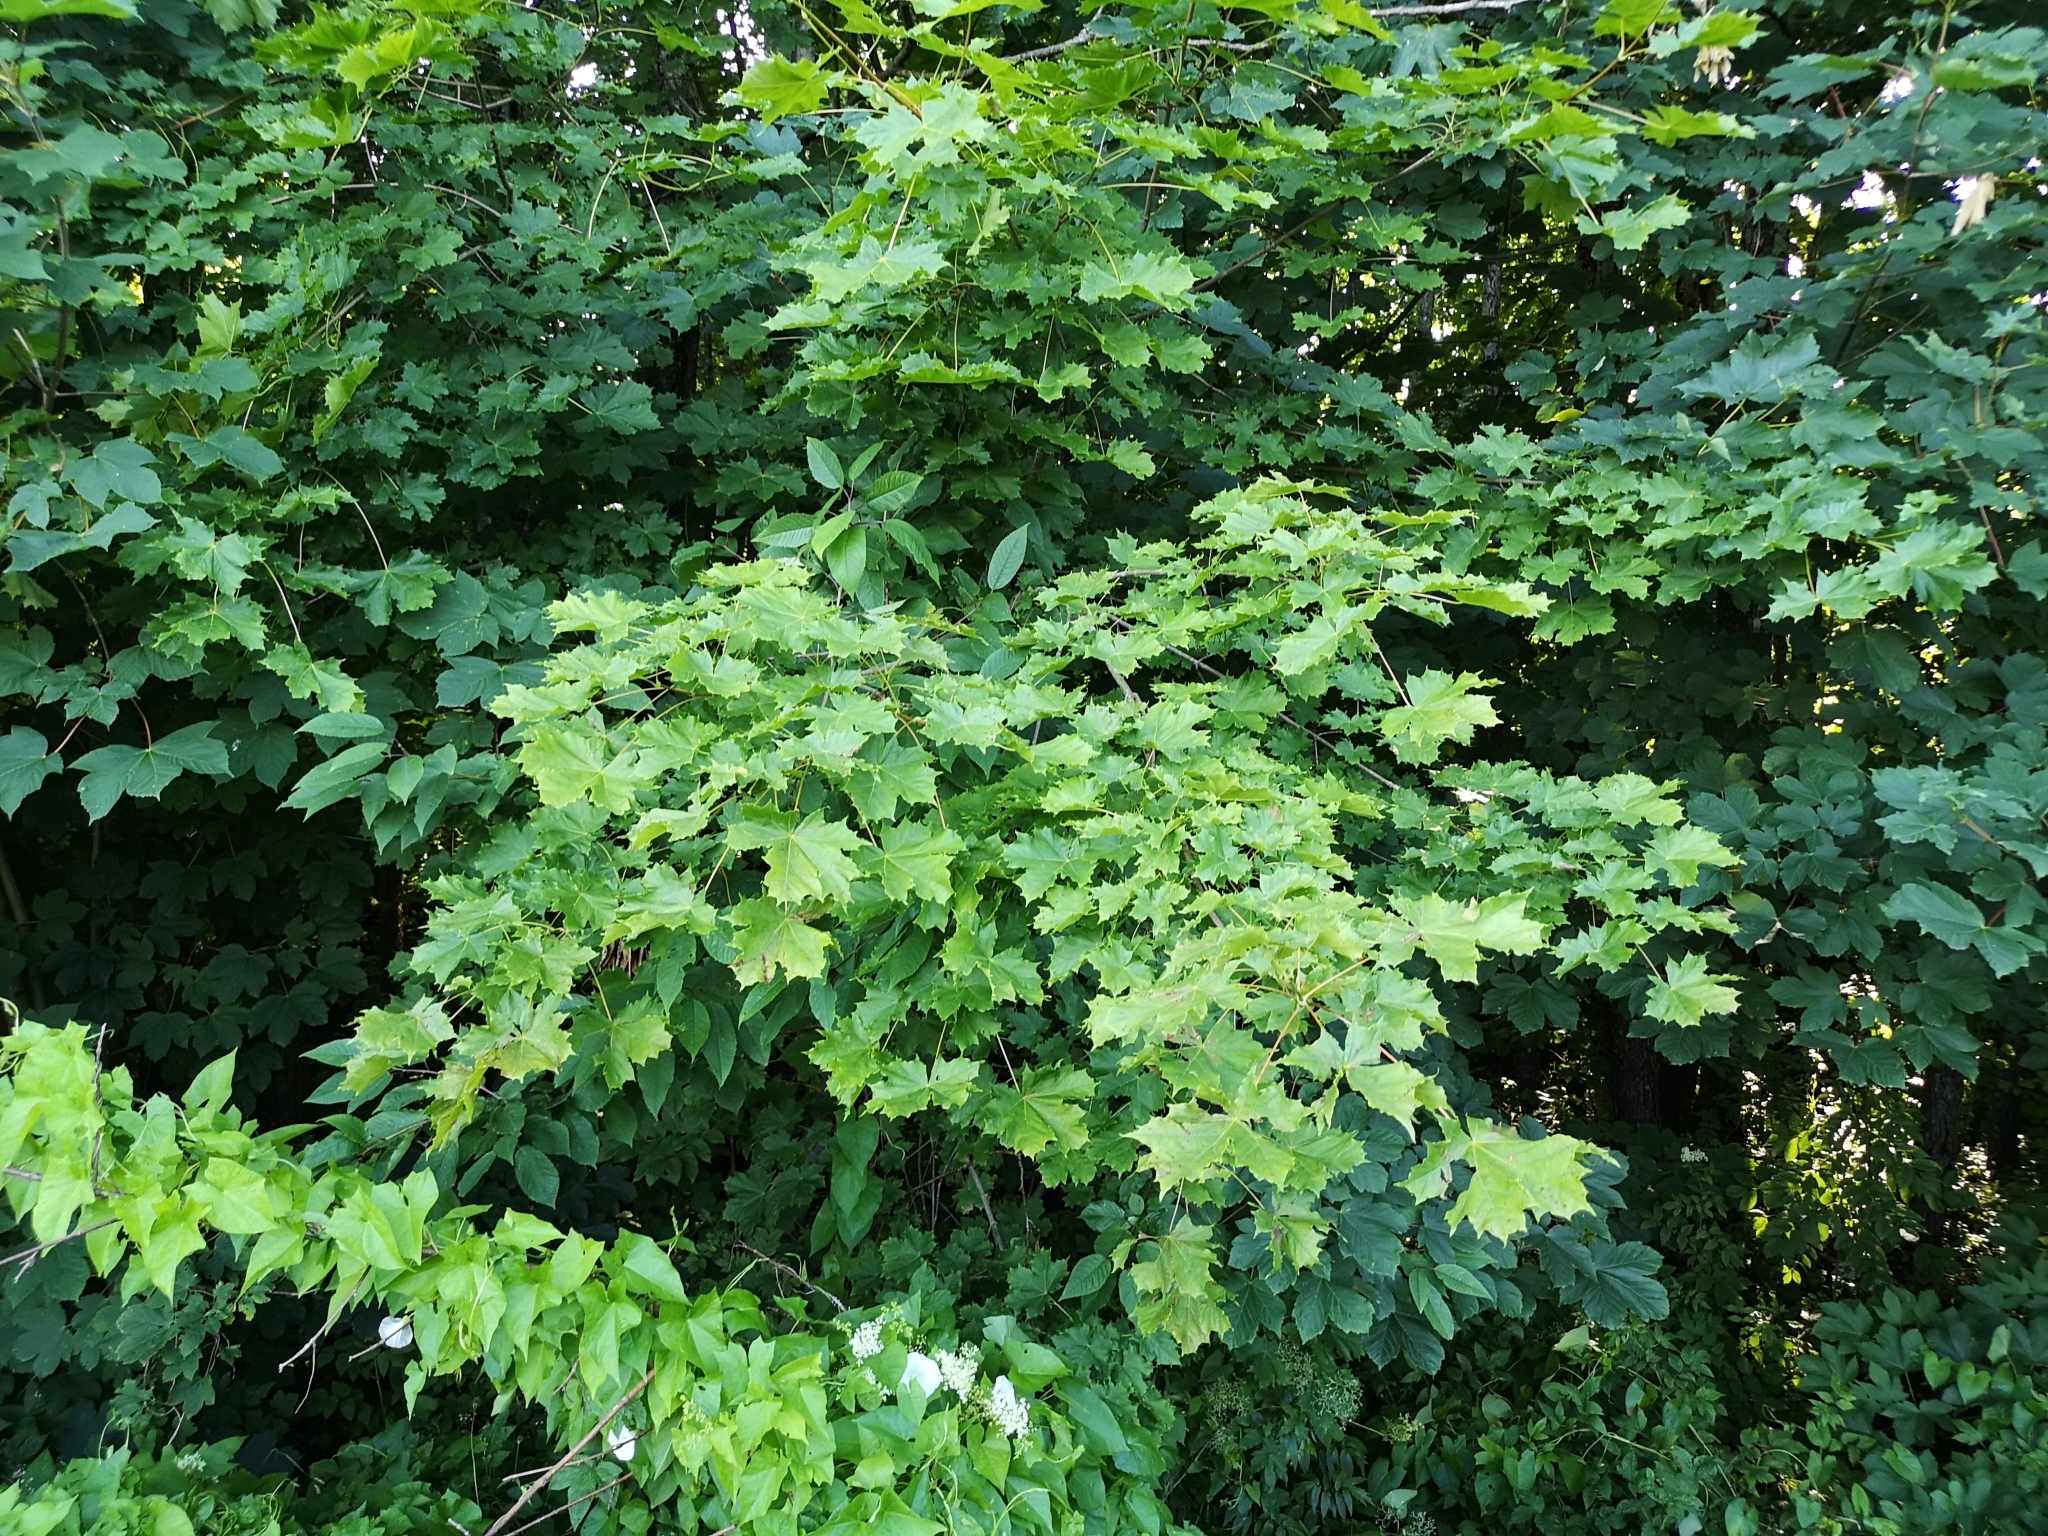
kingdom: Plantae
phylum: Tracheophyta
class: Magnoliopsida
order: Sapindales
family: Sapindaceae
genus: Acer
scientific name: Acer platanoides
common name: Norway maple
